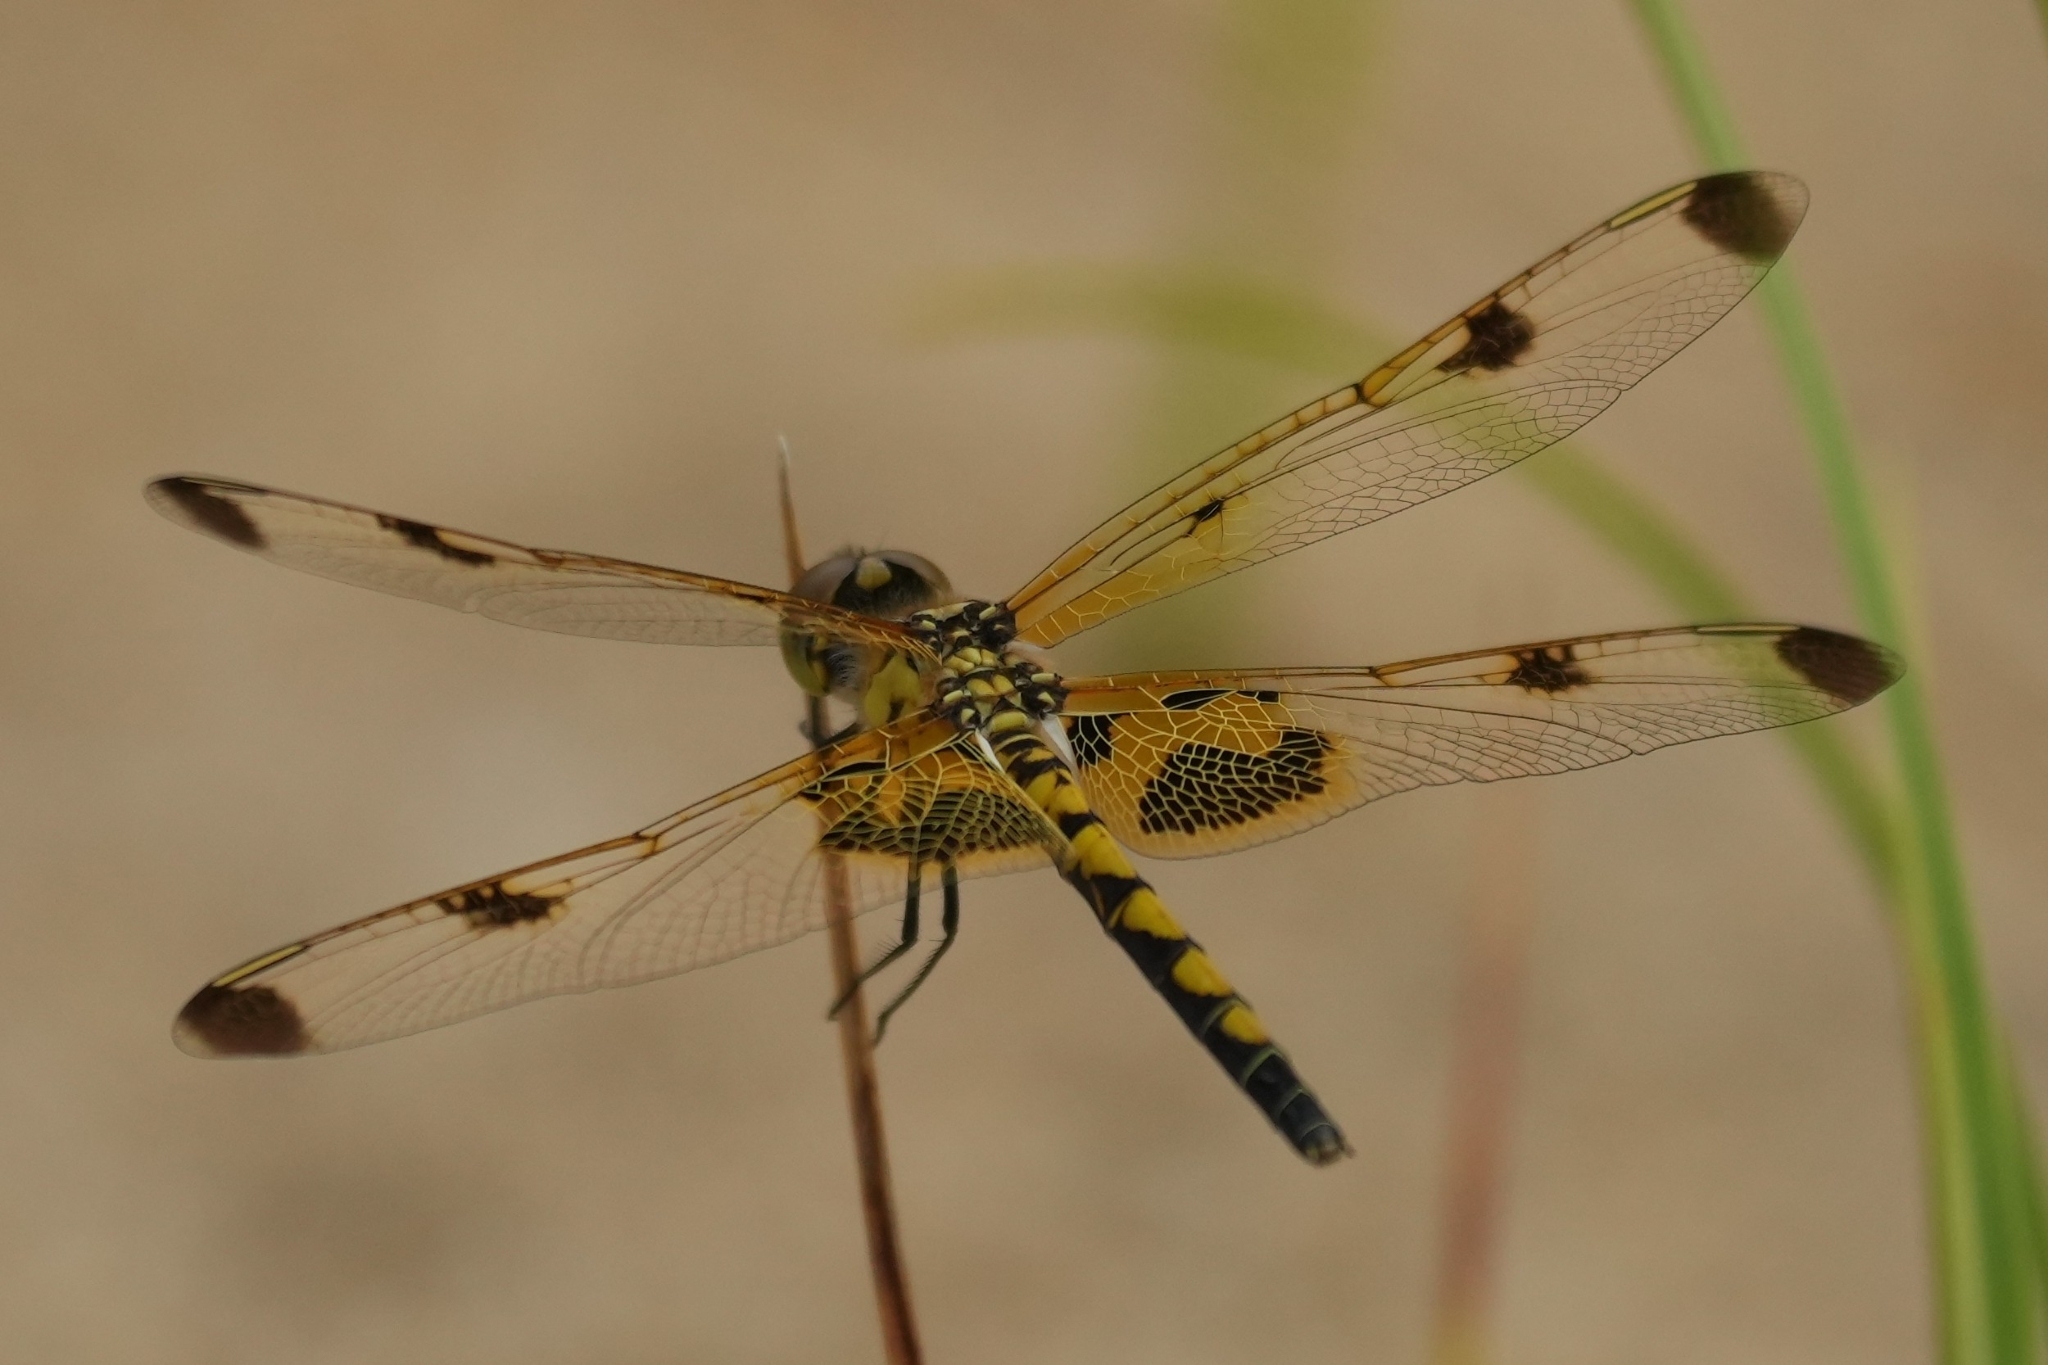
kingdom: Animalia
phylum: Arthropoda
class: Insecta
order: Odonata
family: Libellulidae
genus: Celithemis
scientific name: Celithemis elisa
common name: Calico pennant
